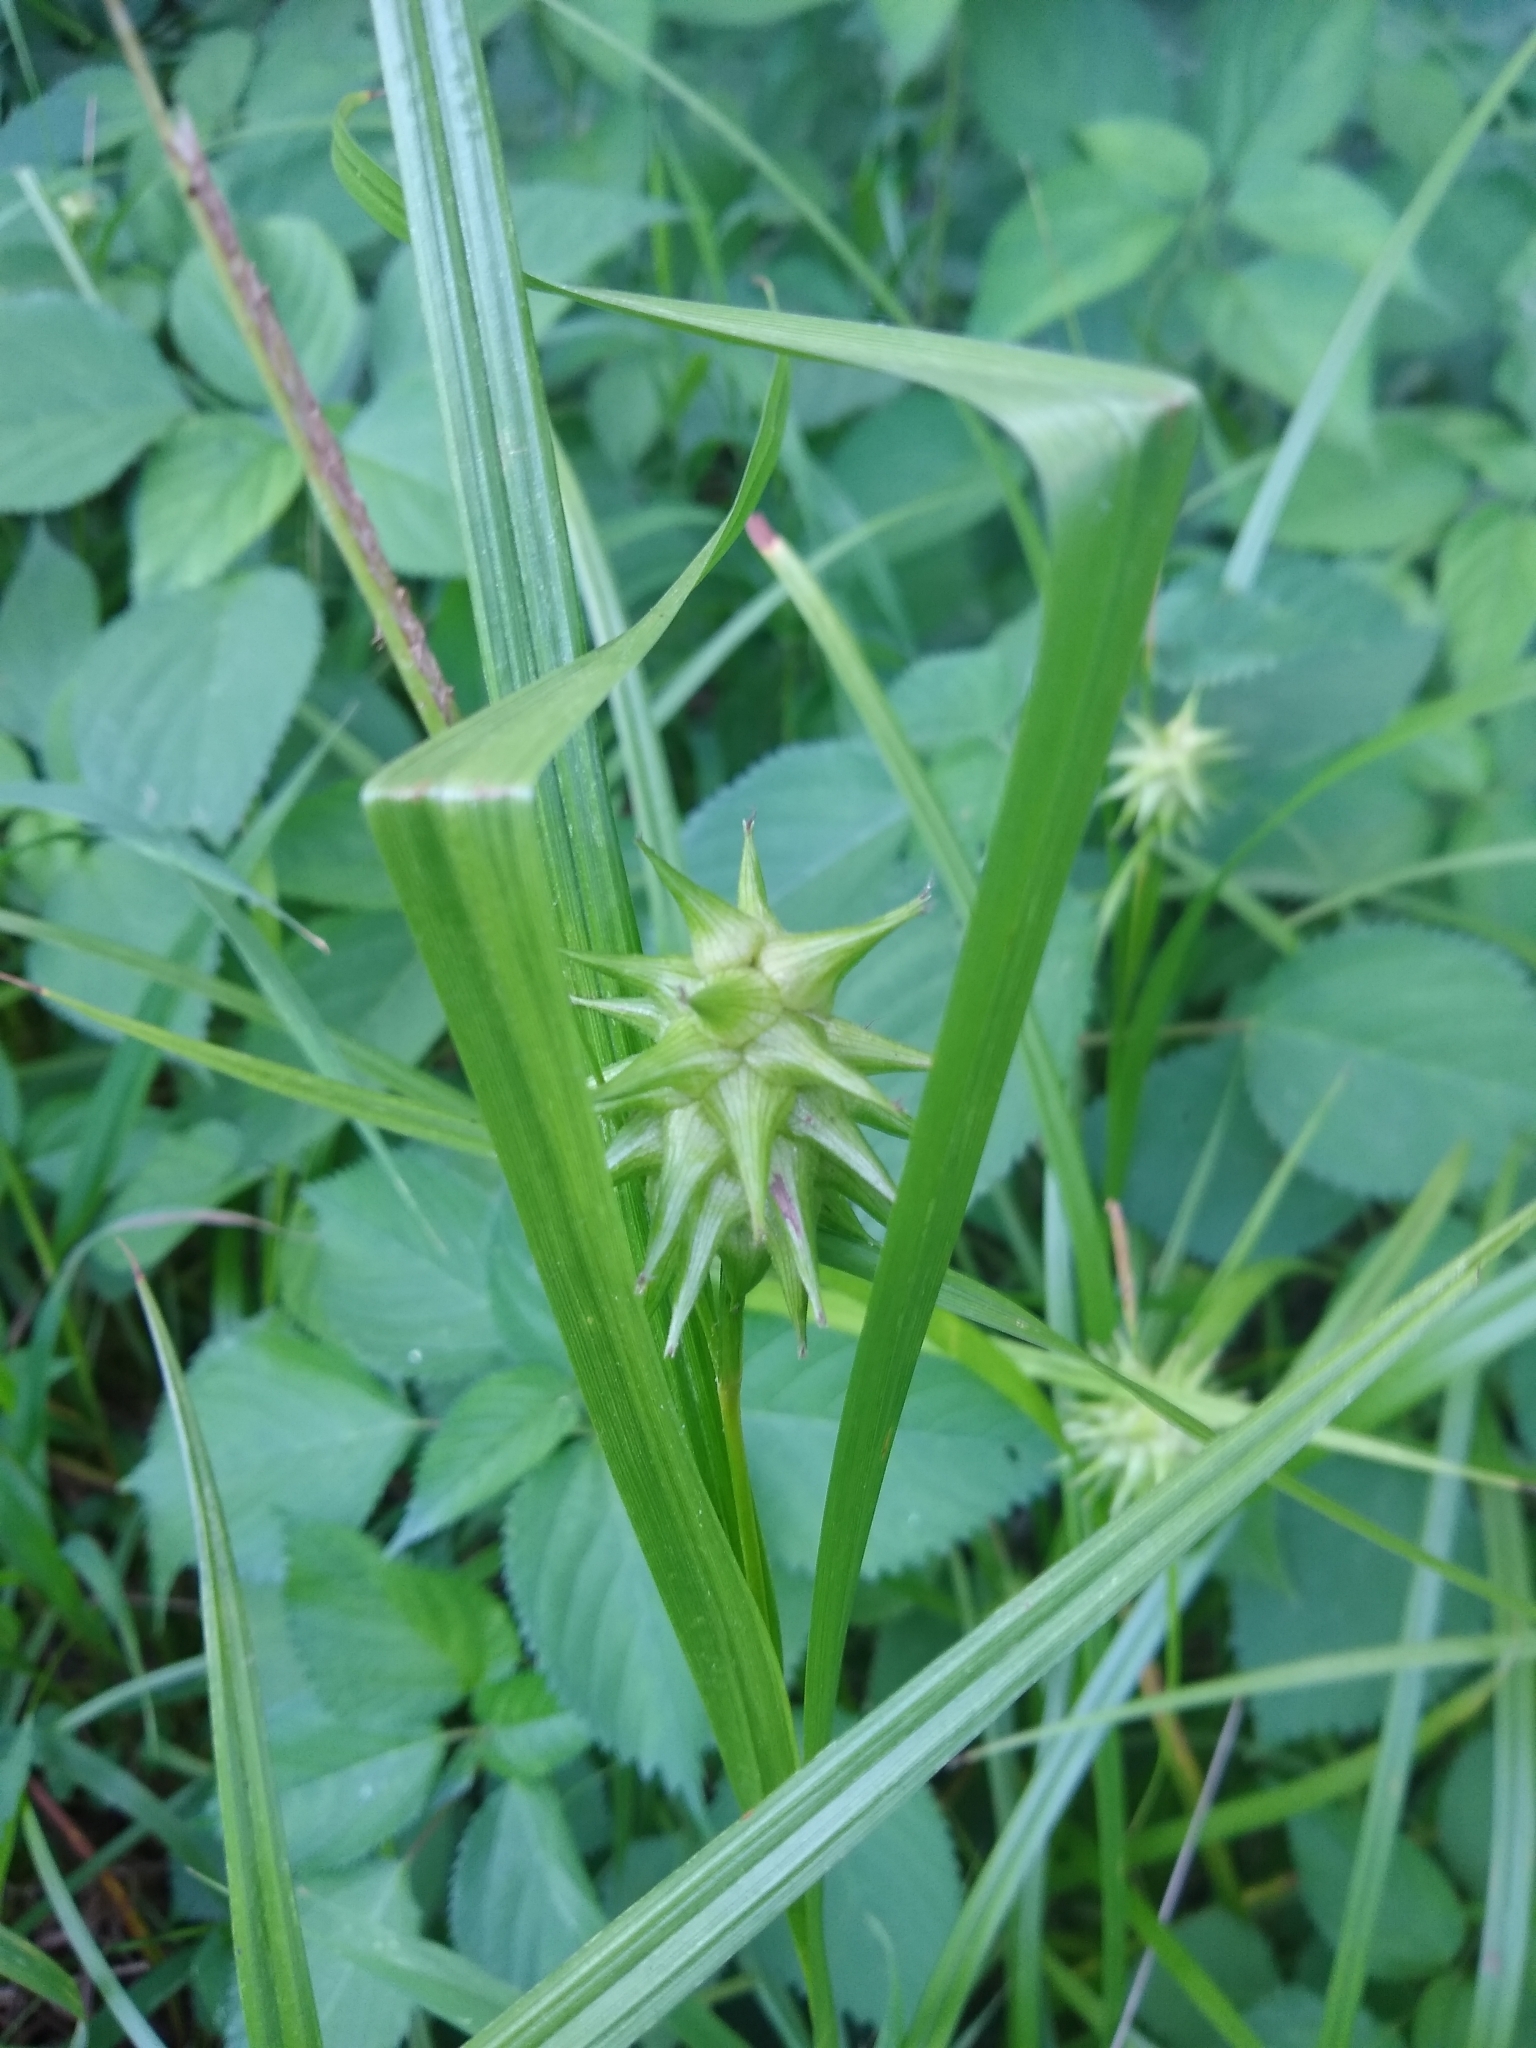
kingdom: Plantae
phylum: Tracheophyta
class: Liliopsida
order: Poales
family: Cyperaceae
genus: Carex
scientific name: Carex grayi
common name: Asa gray's sedge
